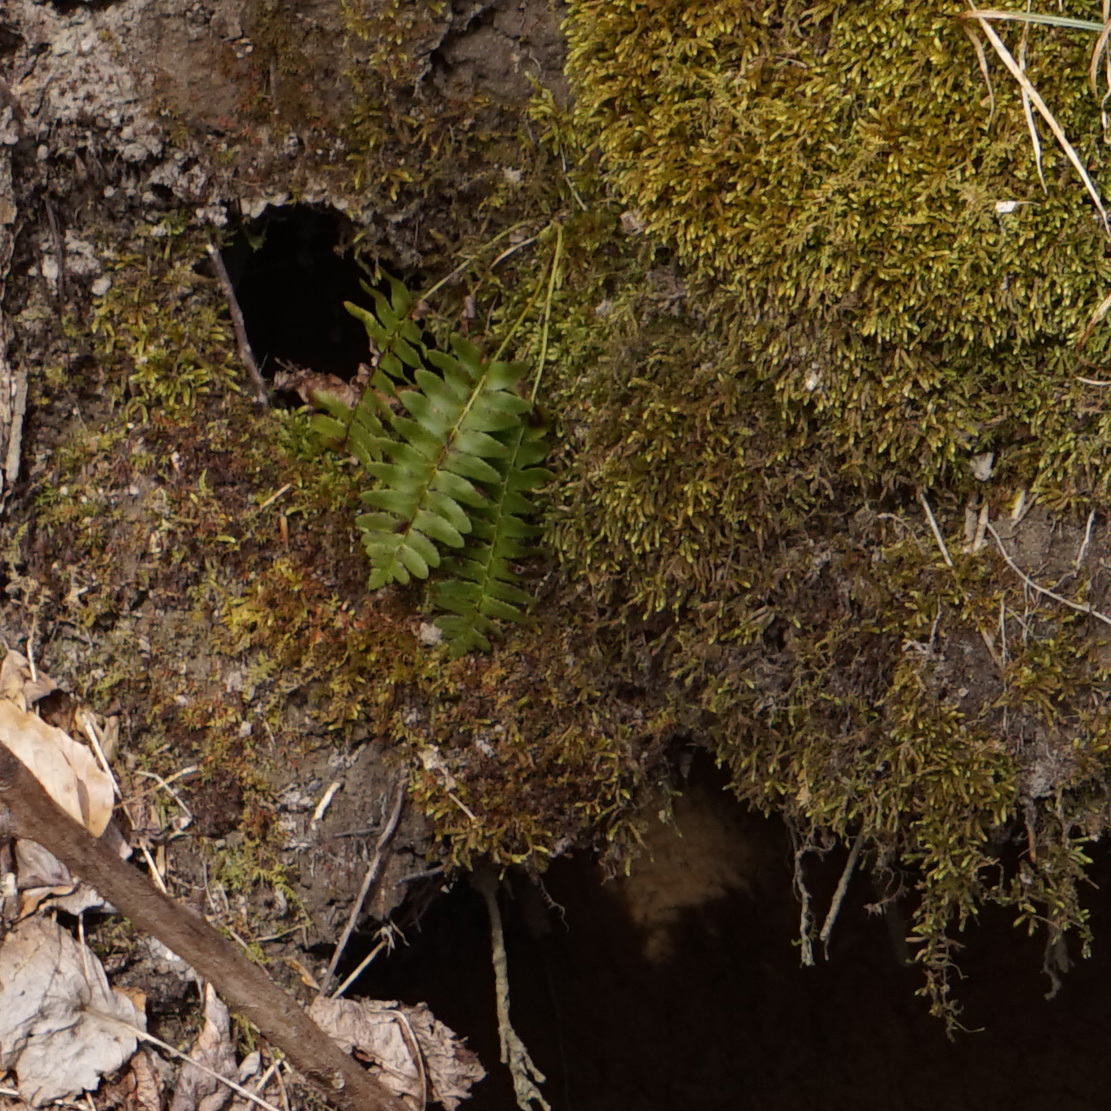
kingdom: Plantae
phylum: Tracheophyta
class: Polypodiopsida
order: Polypodiales
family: Dryopteridaceae
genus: Polystichum
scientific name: Polystichum acrostichoides
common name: Christmas fern
